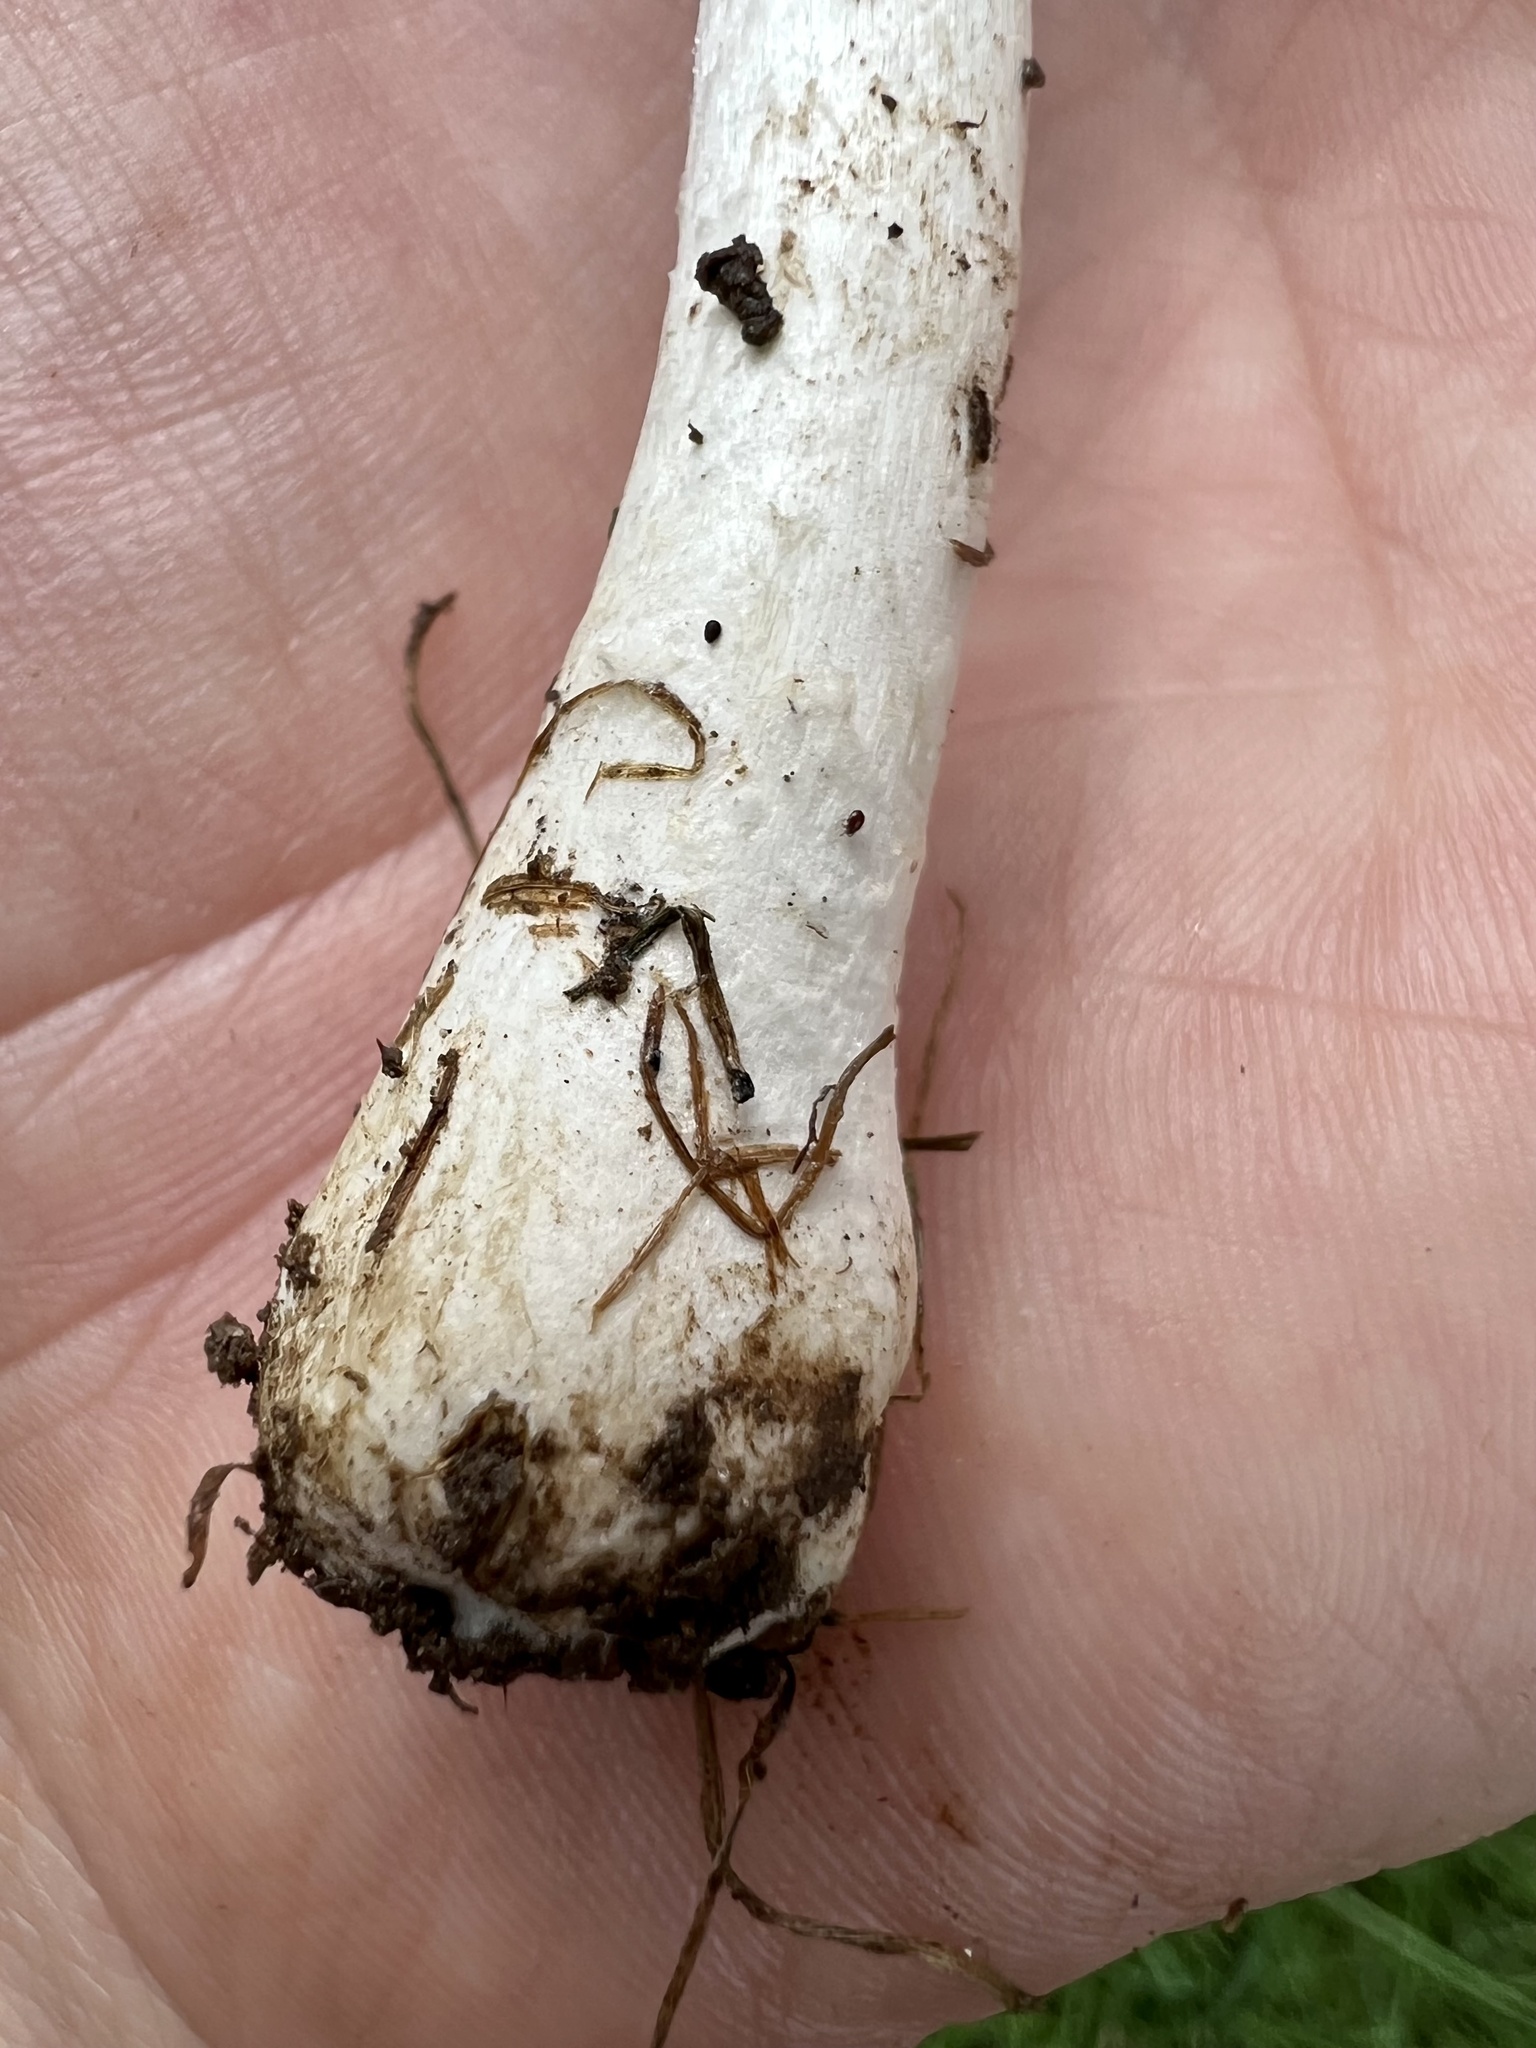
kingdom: Fungi
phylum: Basidiomycota
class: Agaricomycetes
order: Agaricales
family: Agaricaceae
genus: Leucoagaricus
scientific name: Leucoagaricus leucothites
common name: White dapperling
